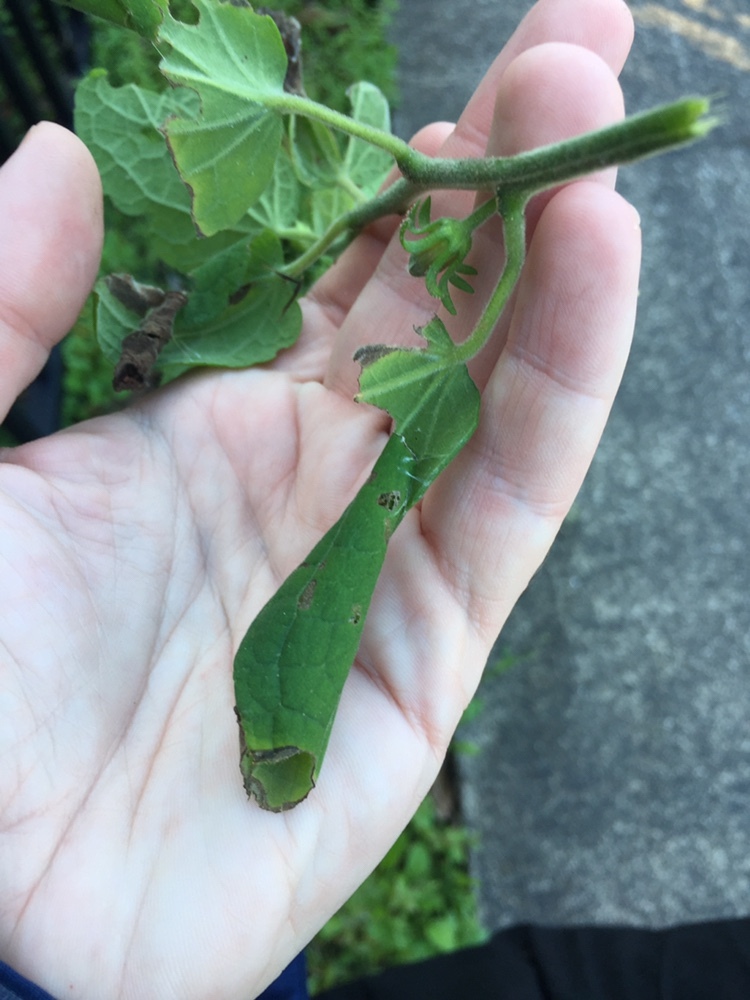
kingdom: Animalia
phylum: Arthropoda
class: Insecta
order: Lepidoptera
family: Crambidae
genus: Haritalodes
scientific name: Haritalodes derogata
